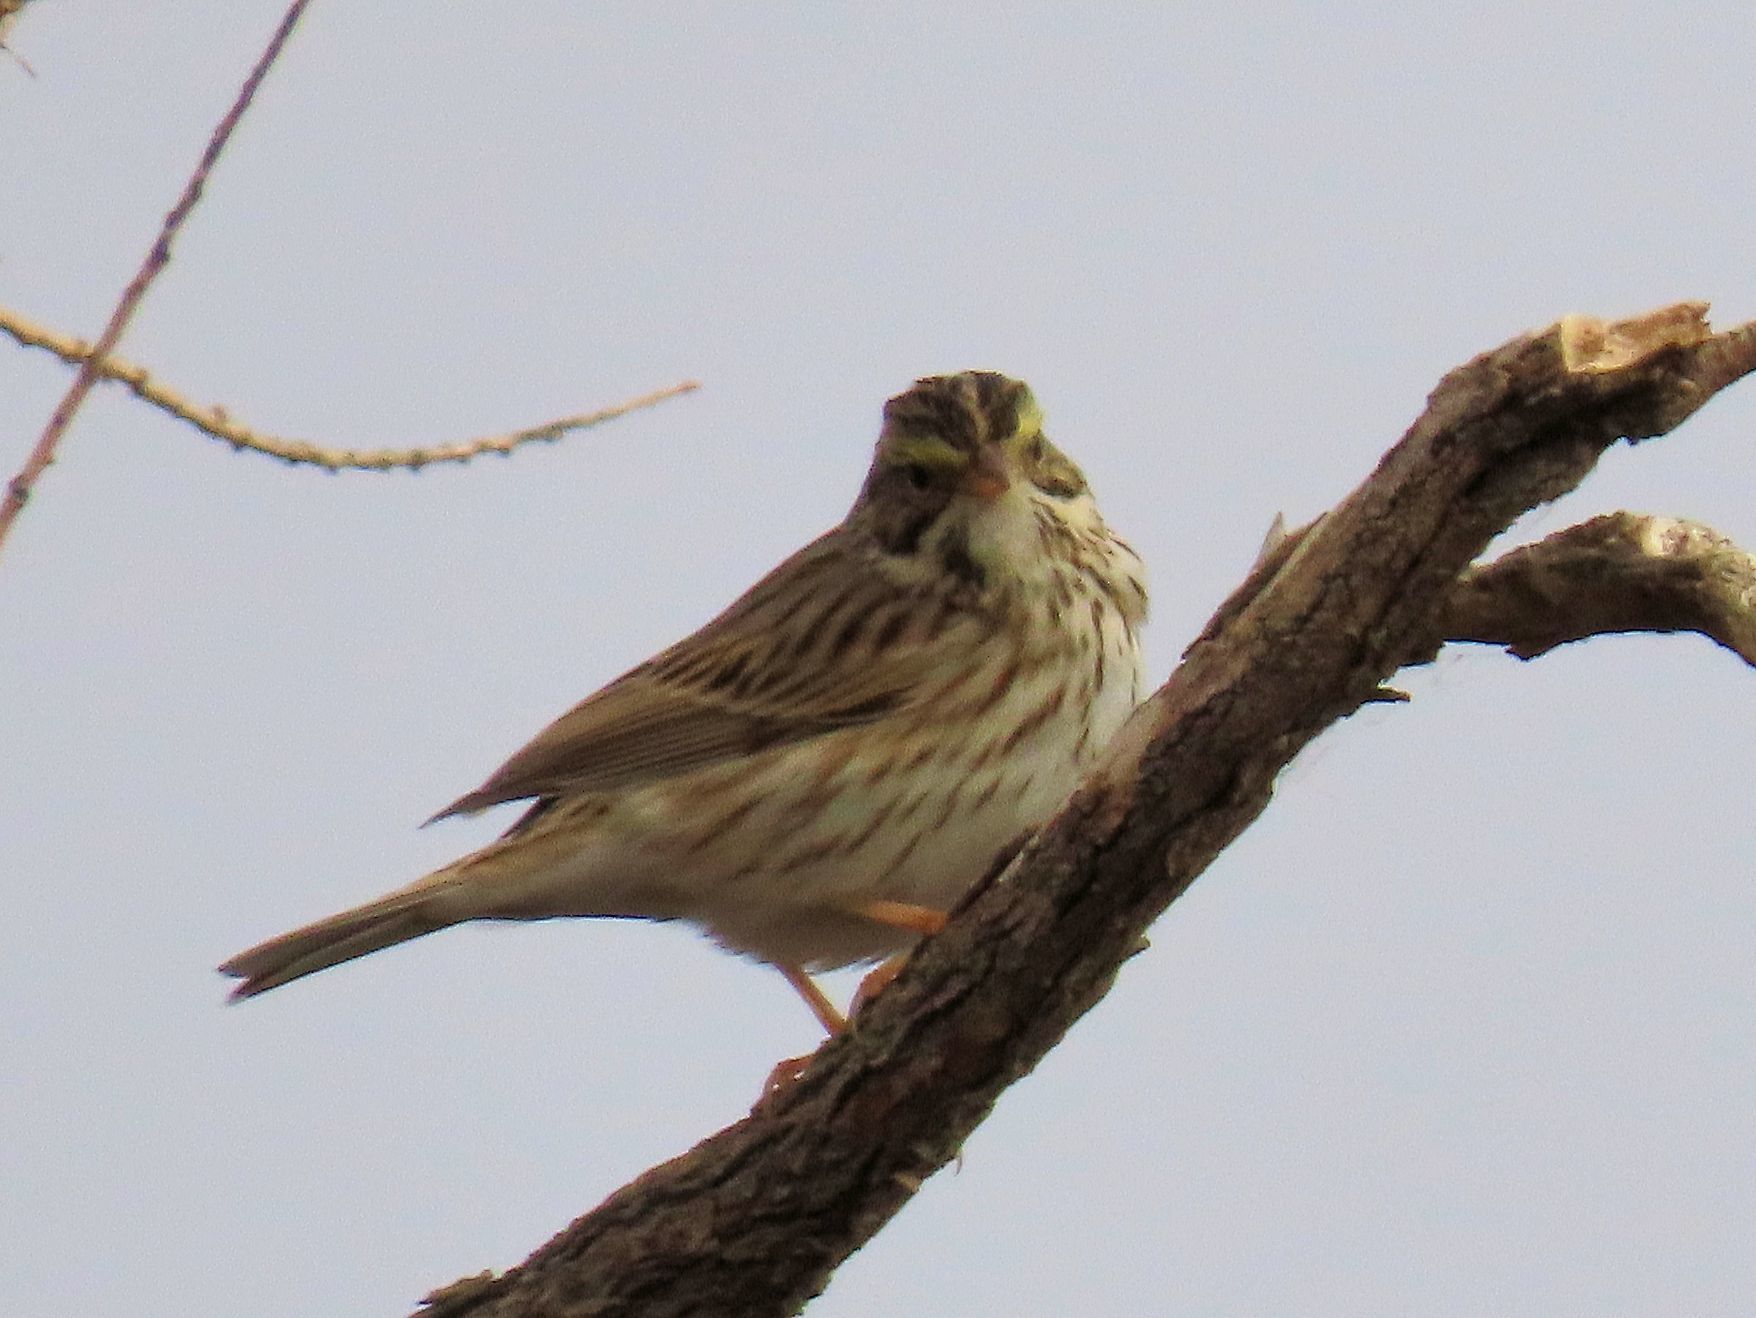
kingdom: Animalia
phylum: Chordata
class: Aves
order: Passeriformes
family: Passerellidae
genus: Passerculus
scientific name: Passerculus sandwichensis
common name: Savannah sparrow
